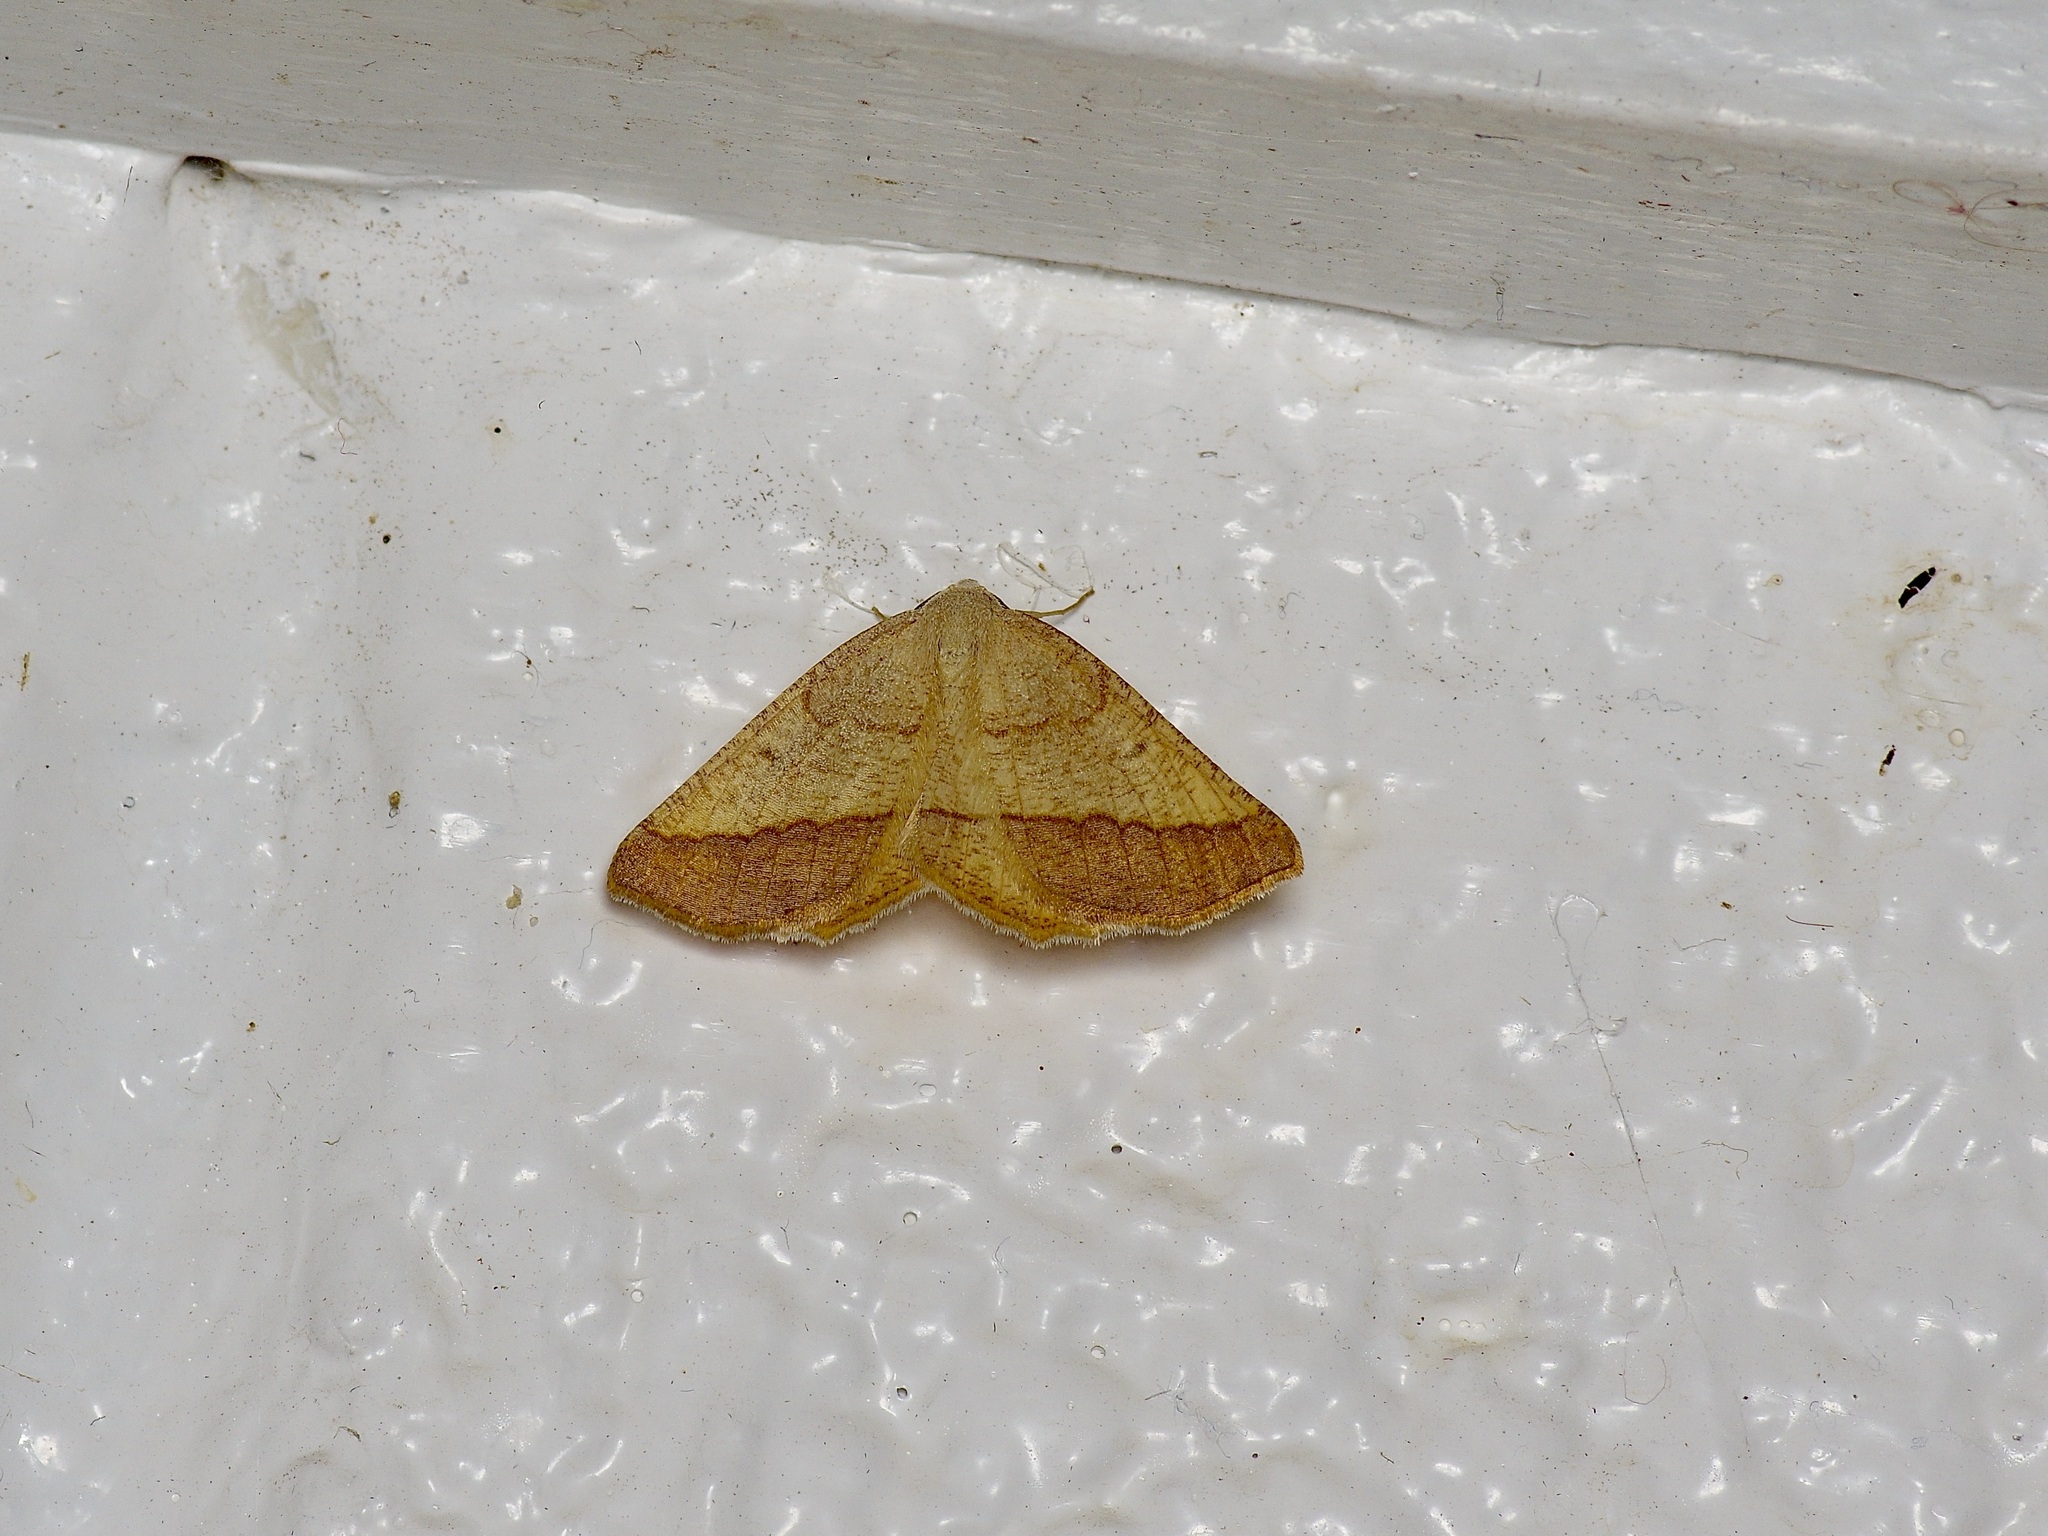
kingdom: Animalia
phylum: Arthropoda
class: Insecta
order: Lepidoptera
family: Geometridae
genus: Lychnosea
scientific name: Lychnosea helveolaria
